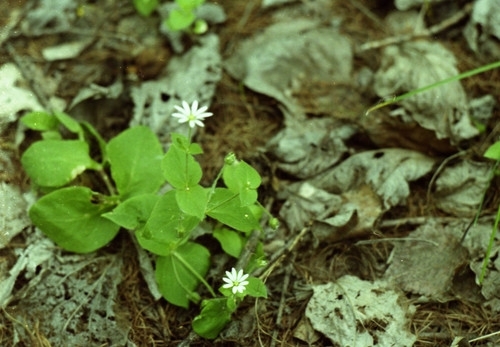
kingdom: Plantae
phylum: Tracheophyta
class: Magnoliopsida
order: Caryophyllales
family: Caryophyllaceae
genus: Stellaria
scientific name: Stellaria bungeana
